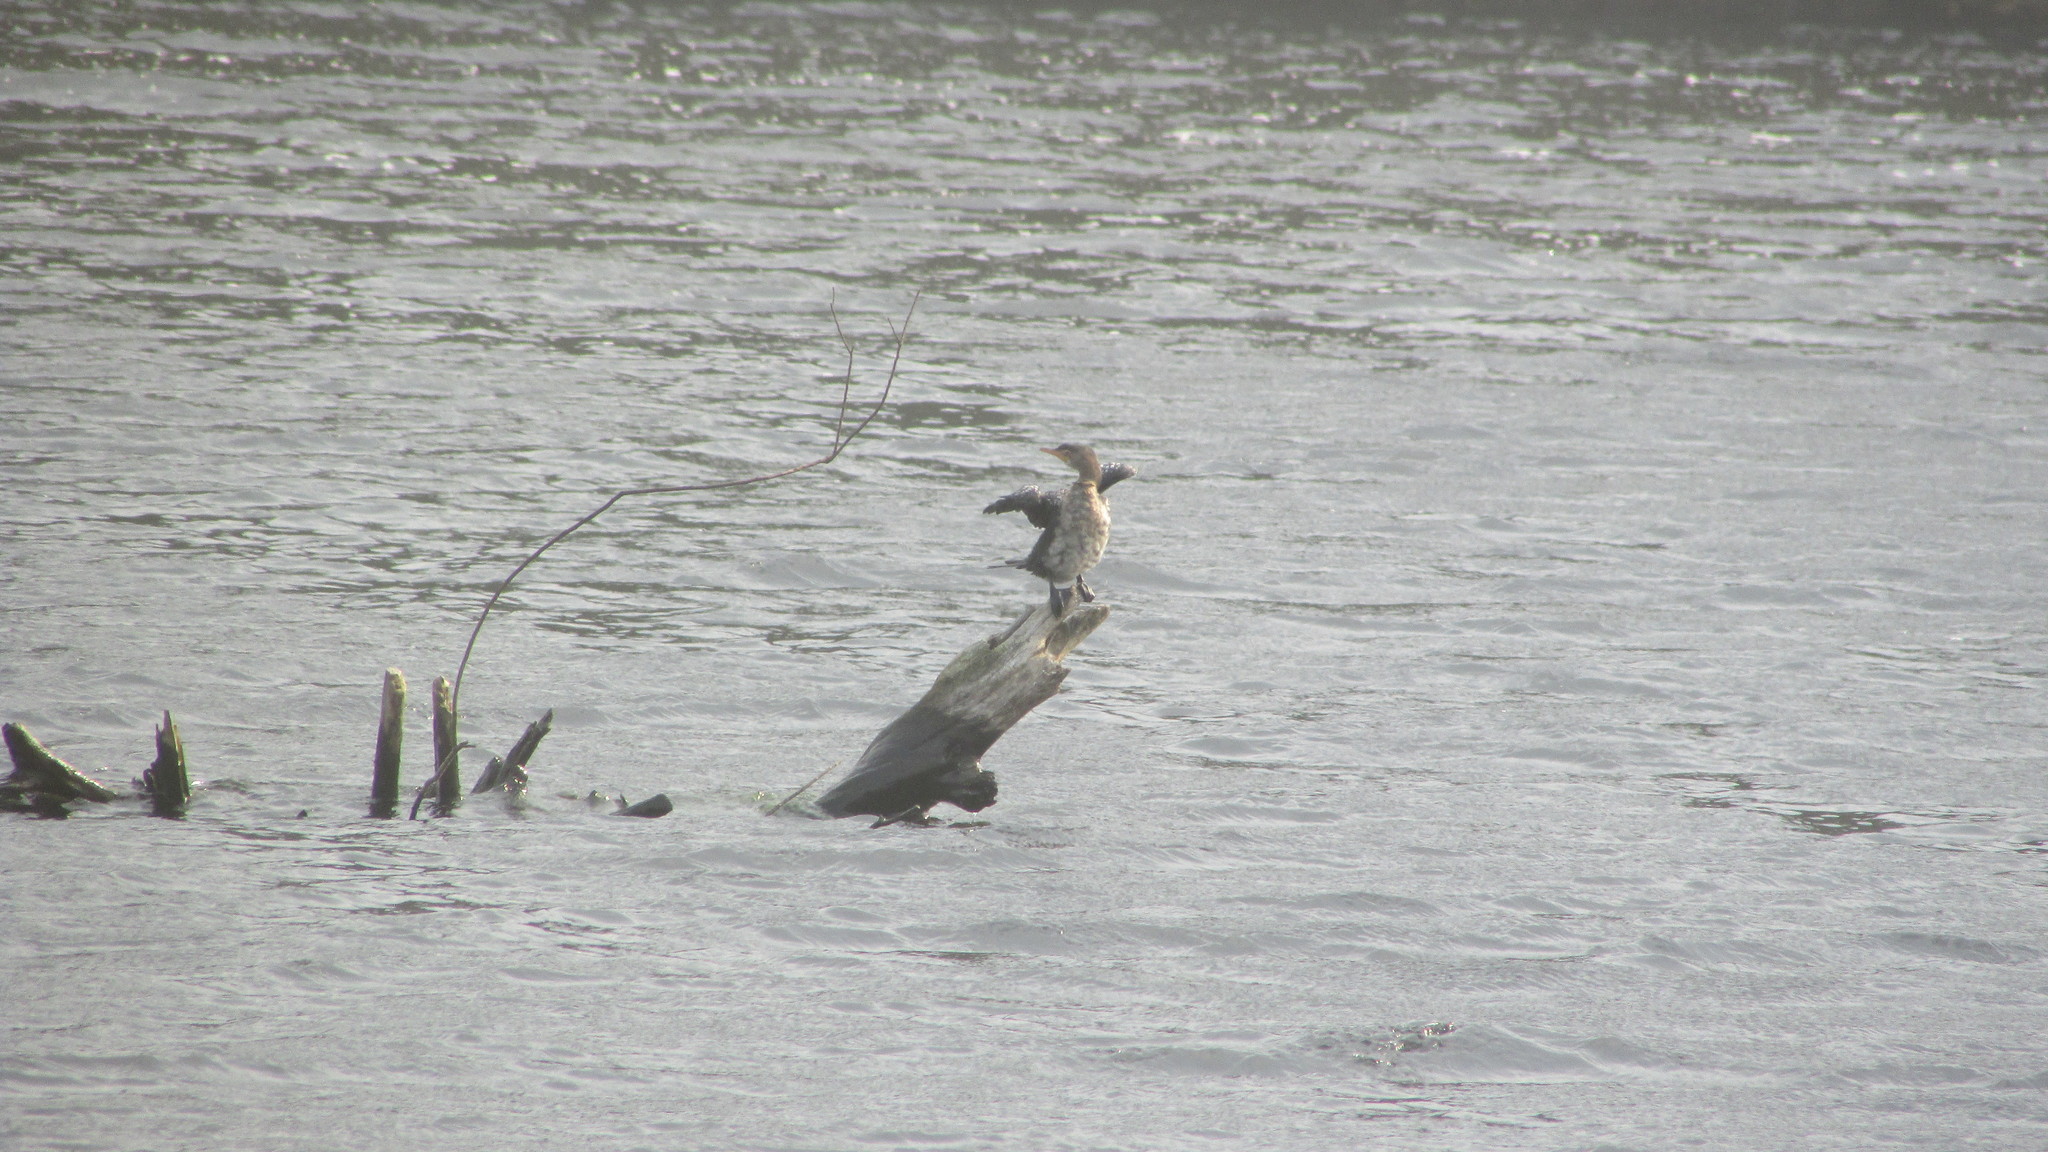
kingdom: Animalia
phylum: Chordata
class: Aves
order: Suliformes
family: Phalacrocoracidae
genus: Microcarbo
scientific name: Microcarbo africanus
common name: Long-tailed cormorant
